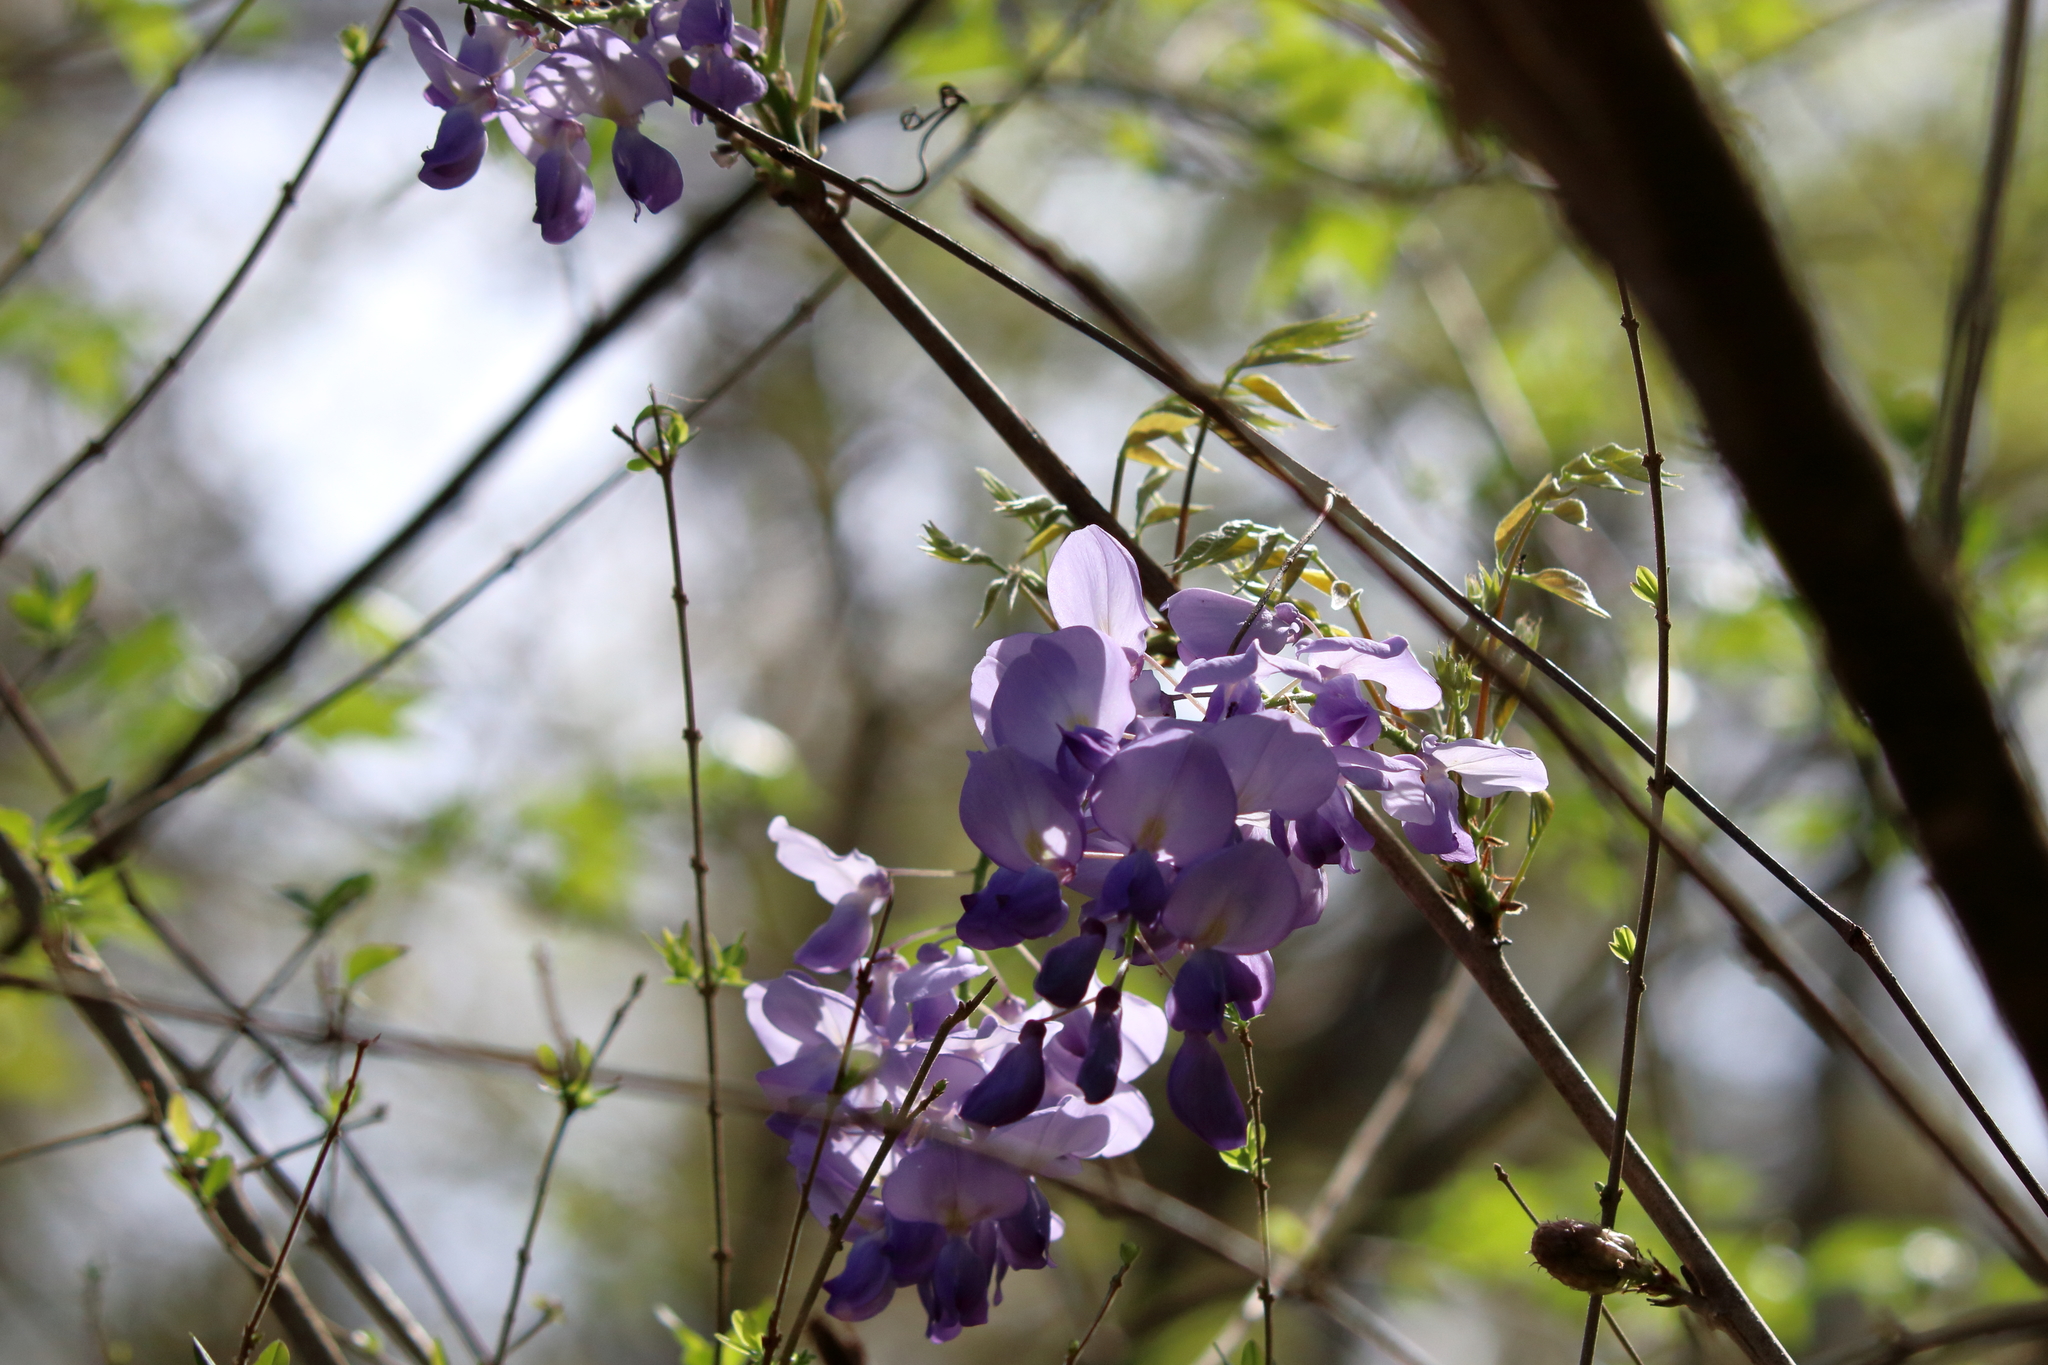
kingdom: Plantae
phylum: Tracheophyta
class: Magnoliopsida
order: Fabales
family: Fabaceae
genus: Wisteria
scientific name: Wisteria sinensis
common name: Chinese wisteria
